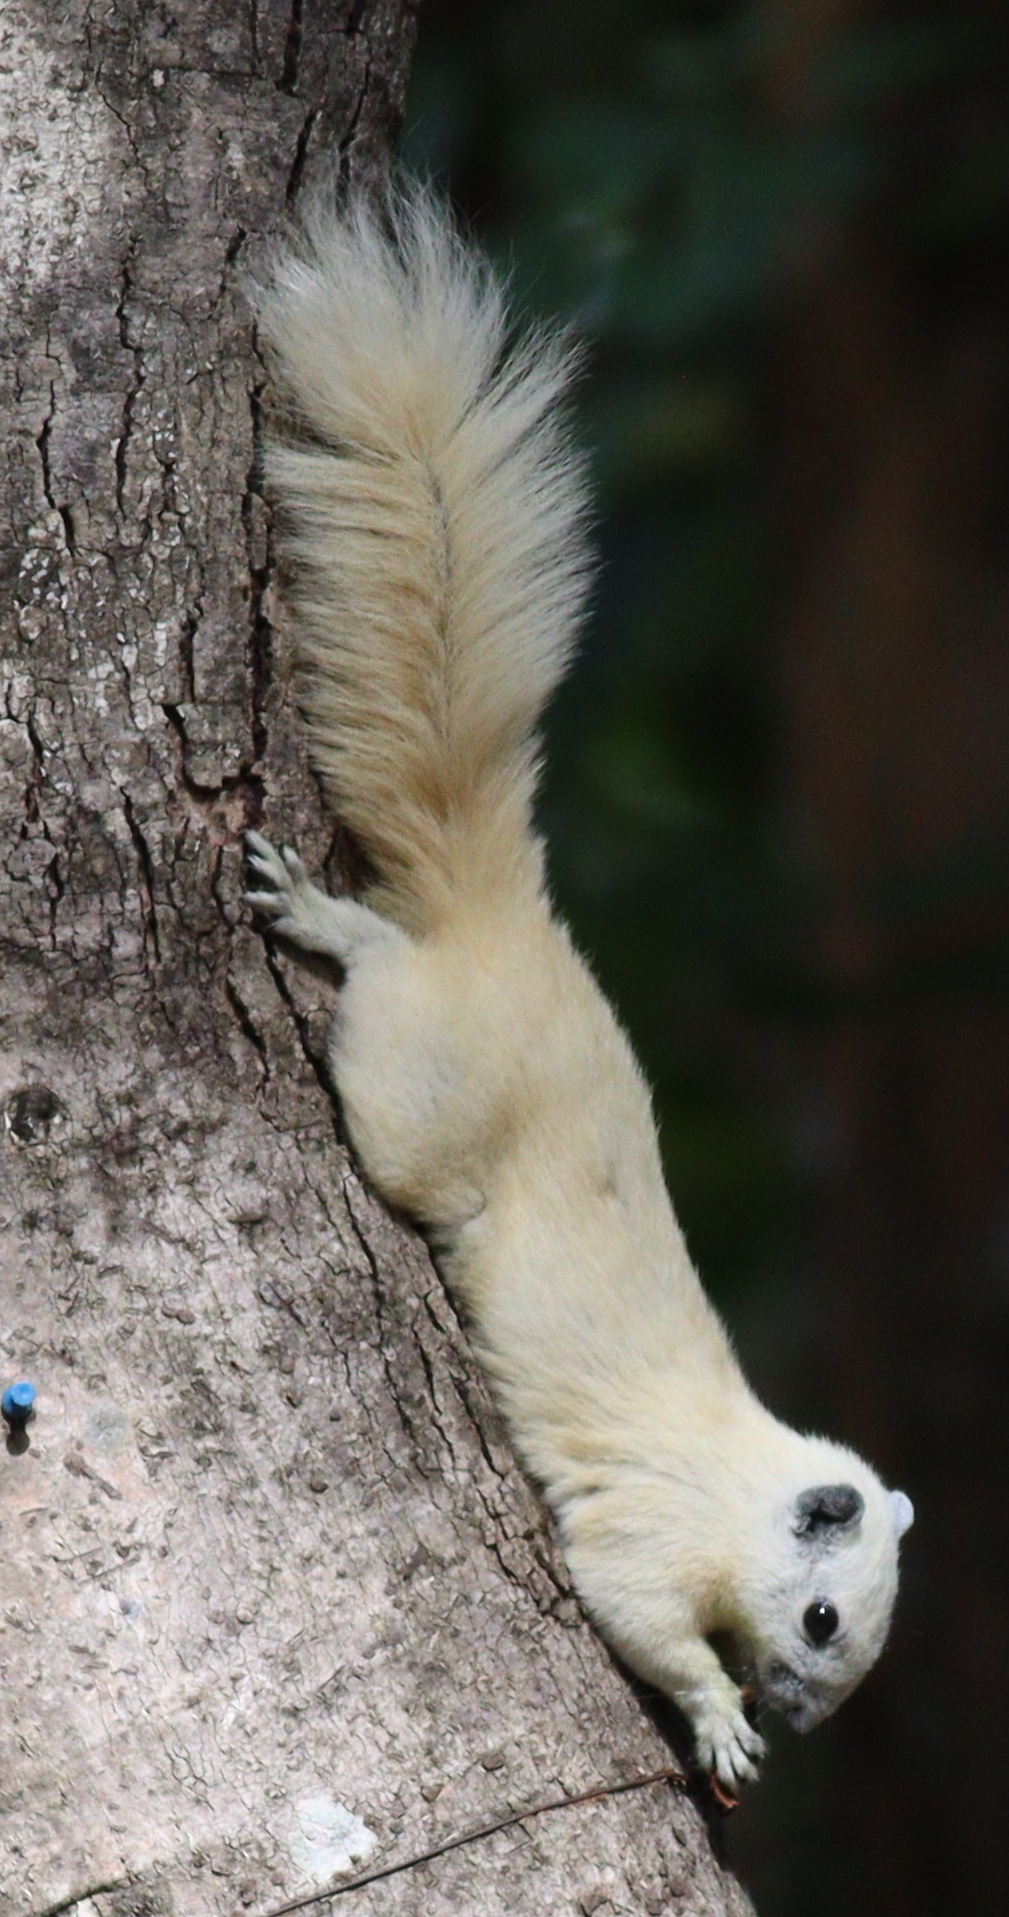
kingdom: Animalia
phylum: Chordata
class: Mammalia
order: Rodentia
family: Sciuridae
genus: Callosciurus
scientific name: Callosciurus finlaysonii
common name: Finlayson's squirrel
